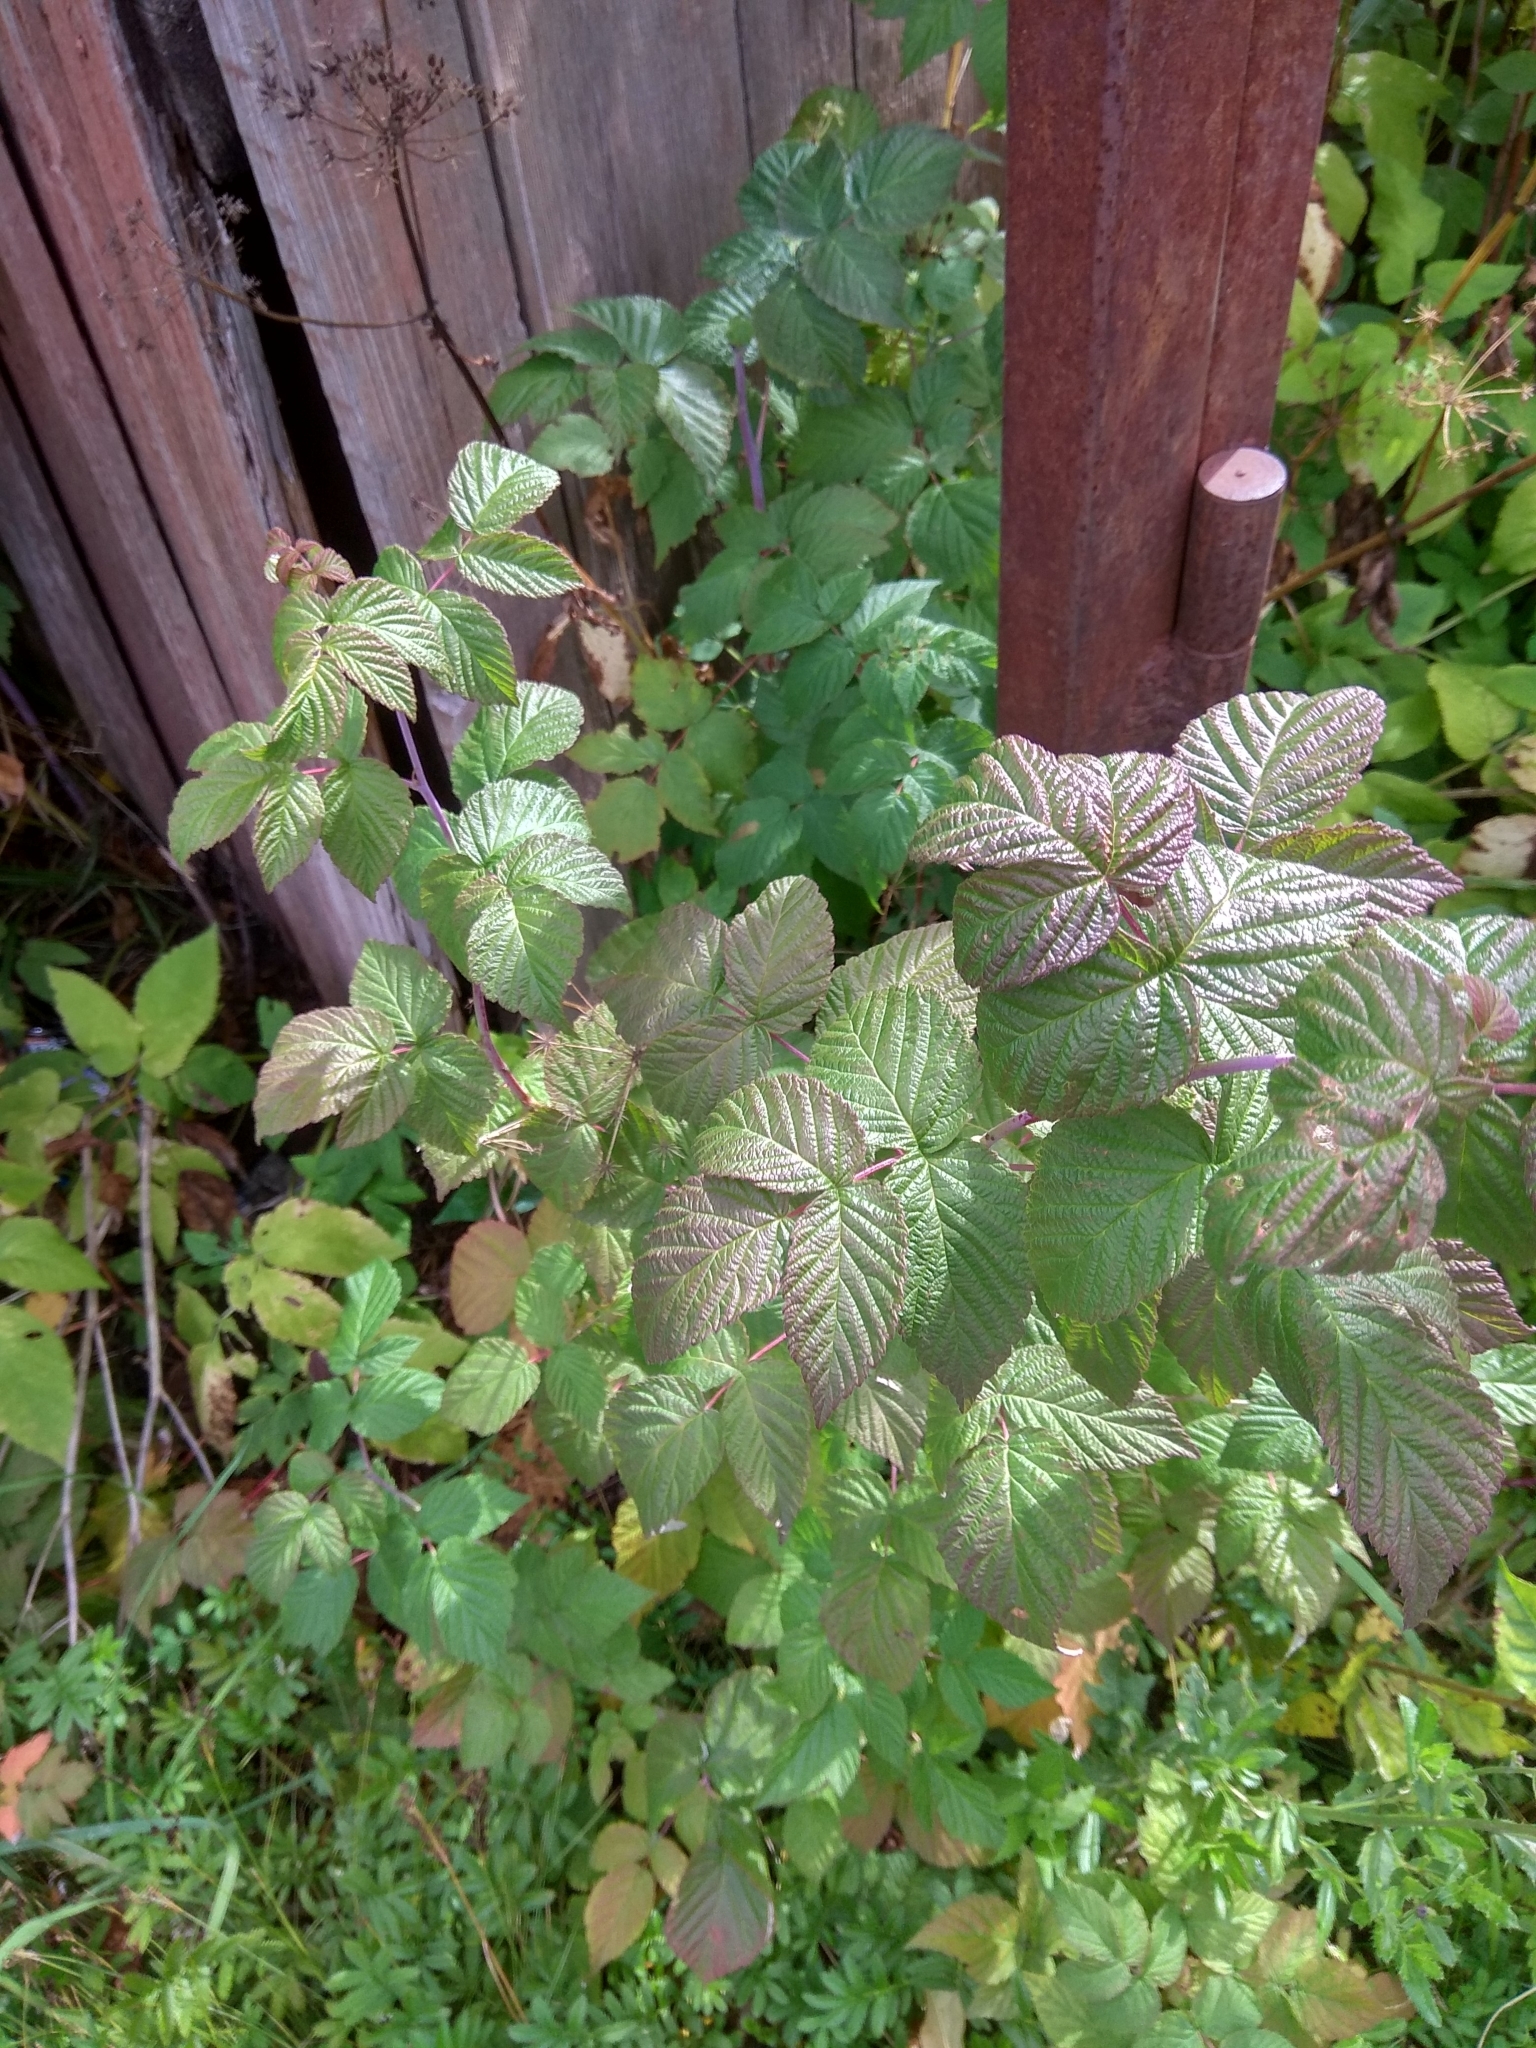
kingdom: Plantae
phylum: Tracheophyta
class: Magnoliopsida
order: Rosales
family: Rosaceae
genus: Rubus
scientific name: Rubus idaeus
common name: Raspberry
